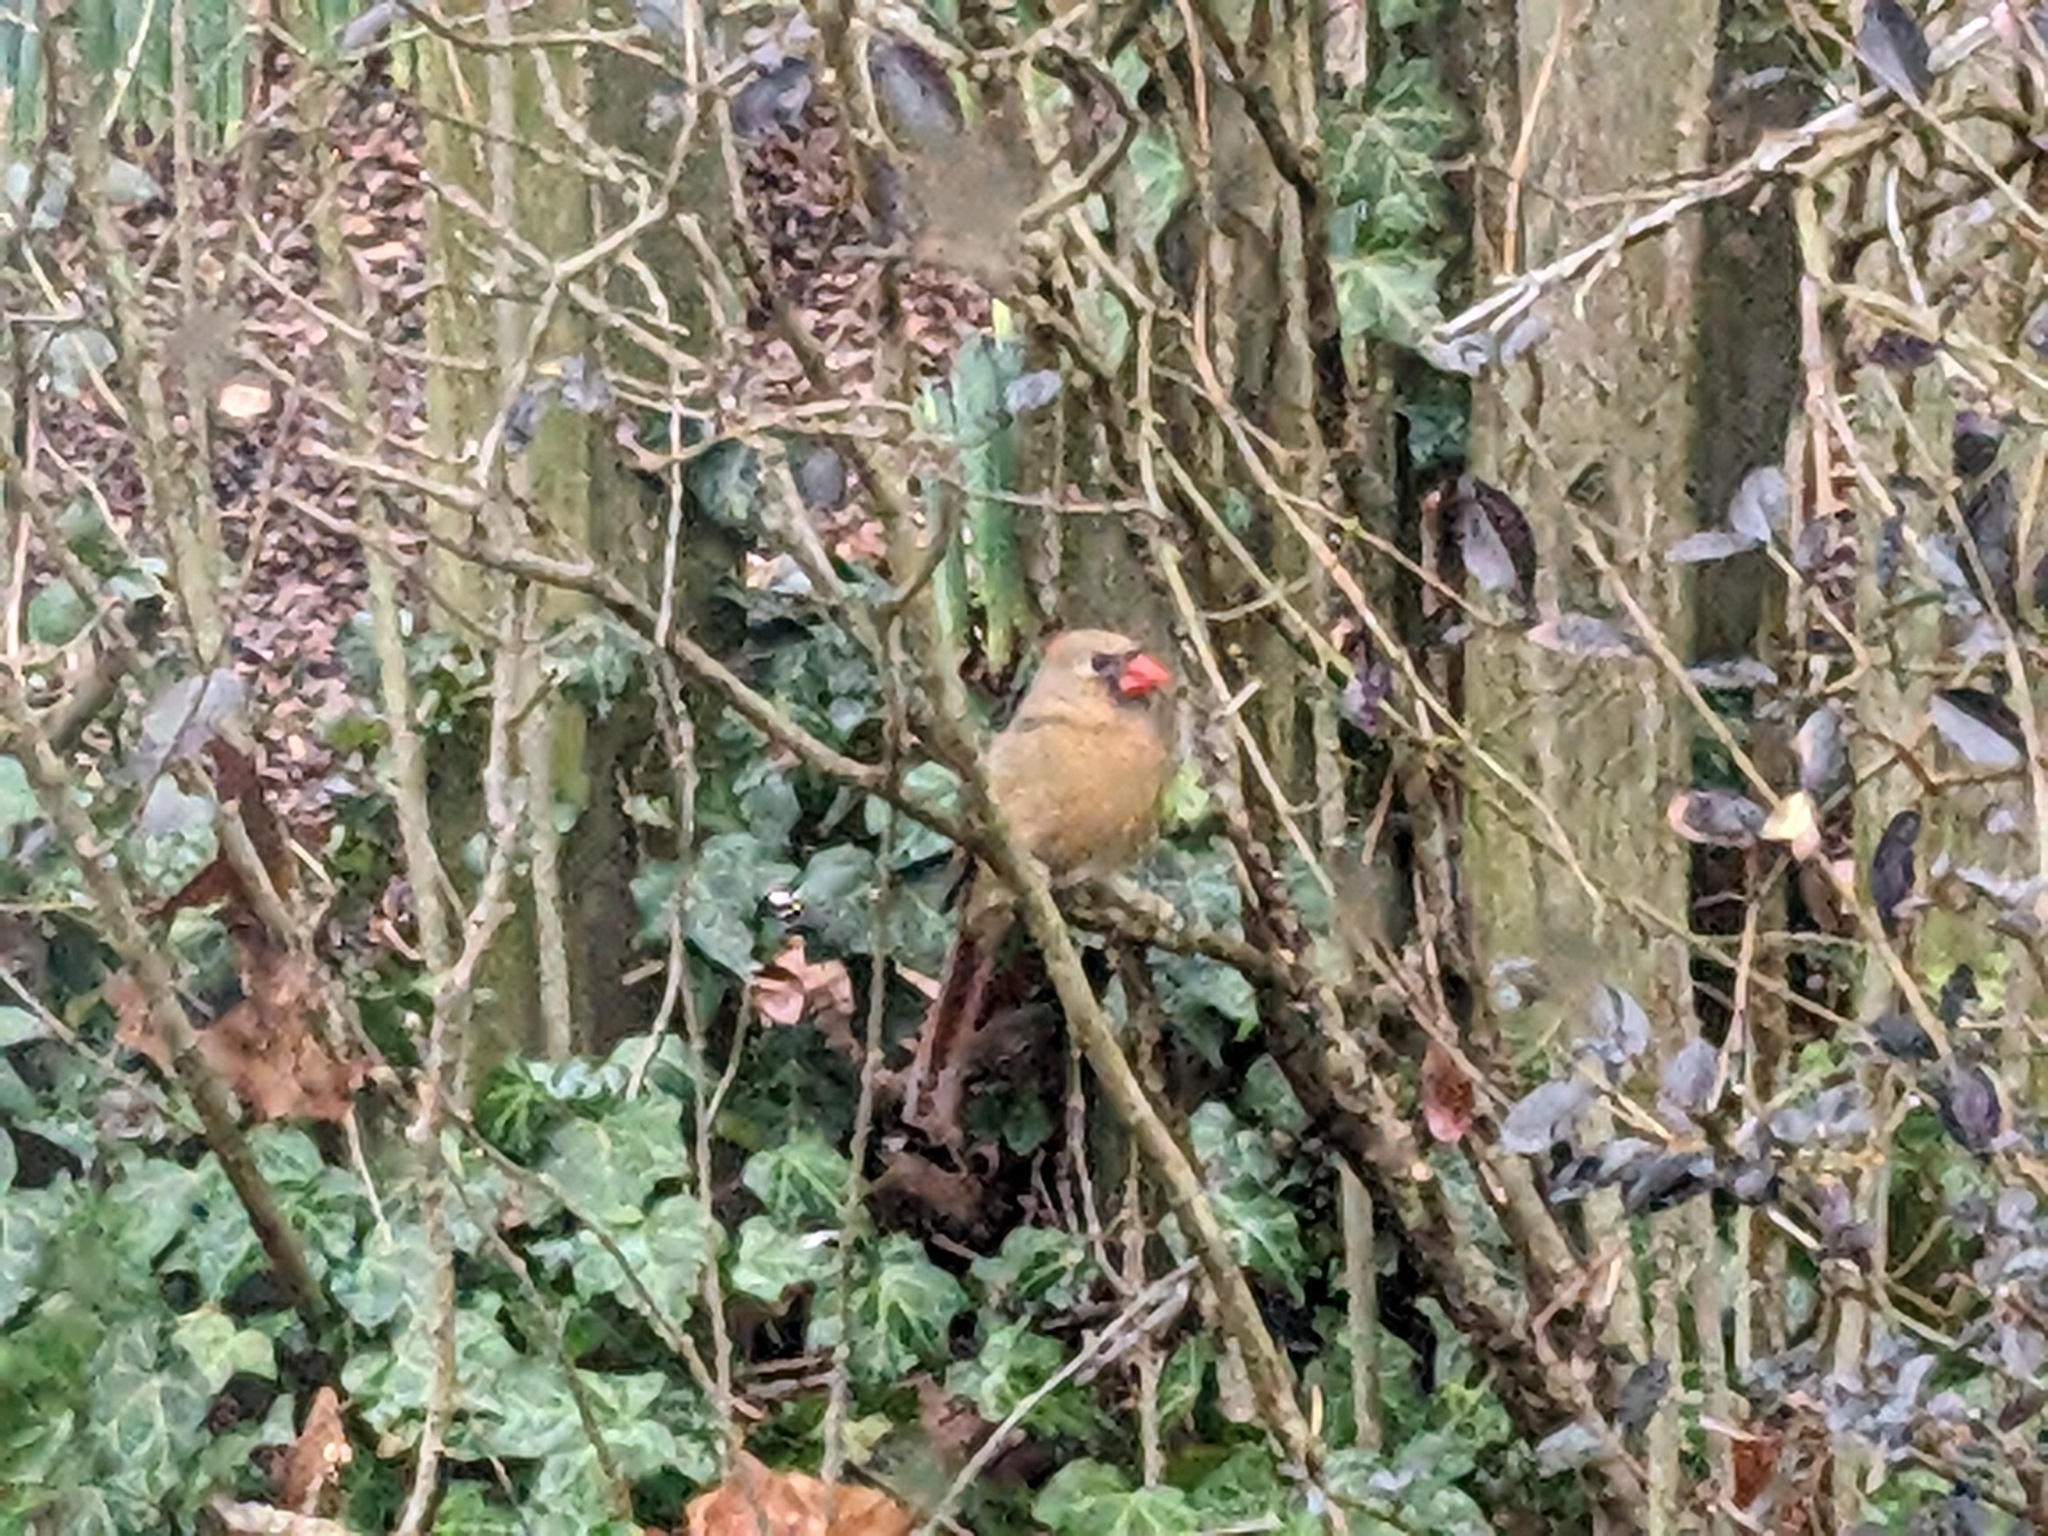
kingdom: Animalia
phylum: Chordata
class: Aves
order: Passeriformes
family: Cardinalidae
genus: Cardinalis
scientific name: Cardinalis cardinalis
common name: Northern cardinal
